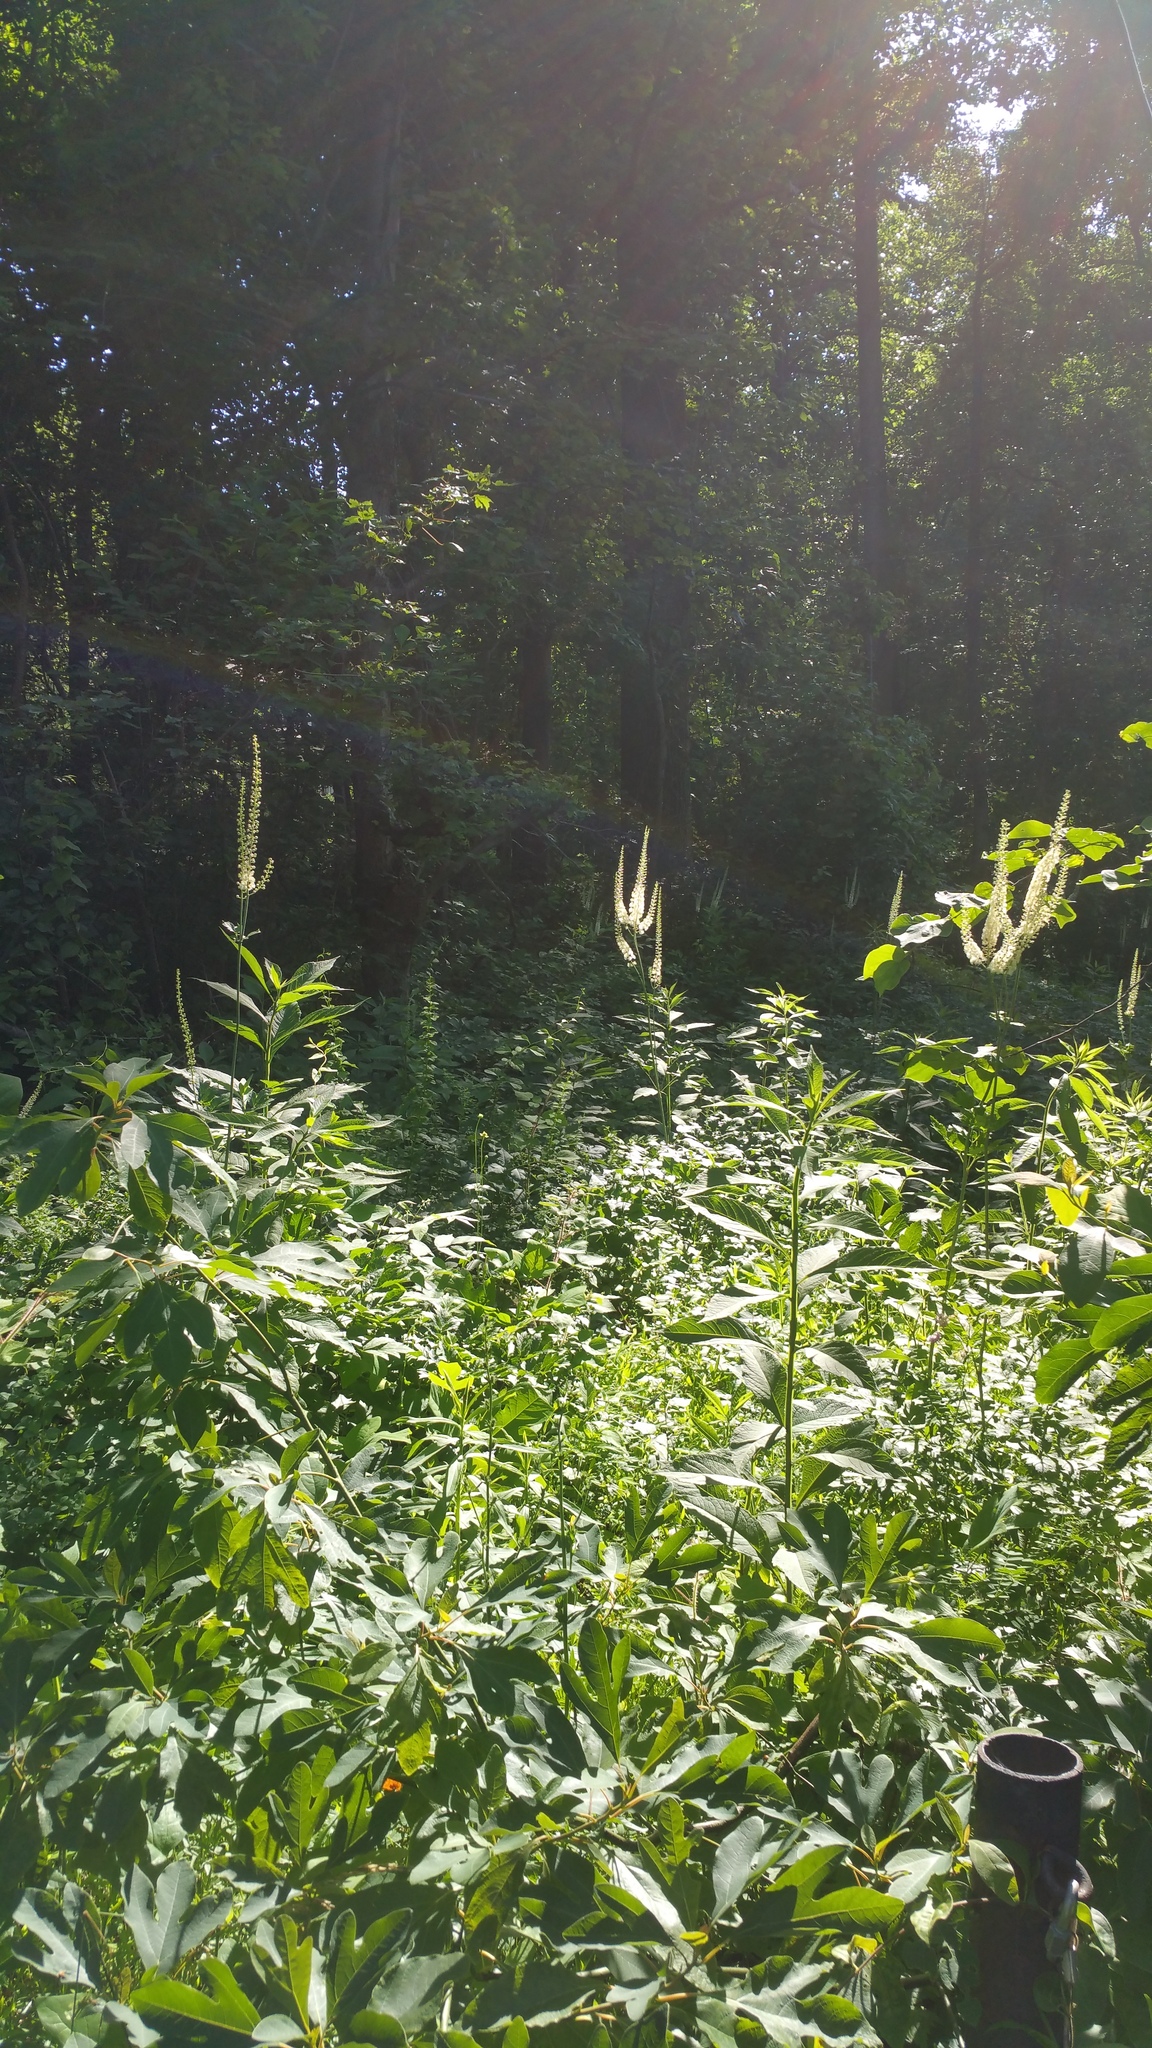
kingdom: Plantae
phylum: Tracheophyta
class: Magnoliopsida
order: Ranunculales
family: Ranunculaceae
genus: Actaea
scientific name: Actaea racemosa
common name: Black cohosh
